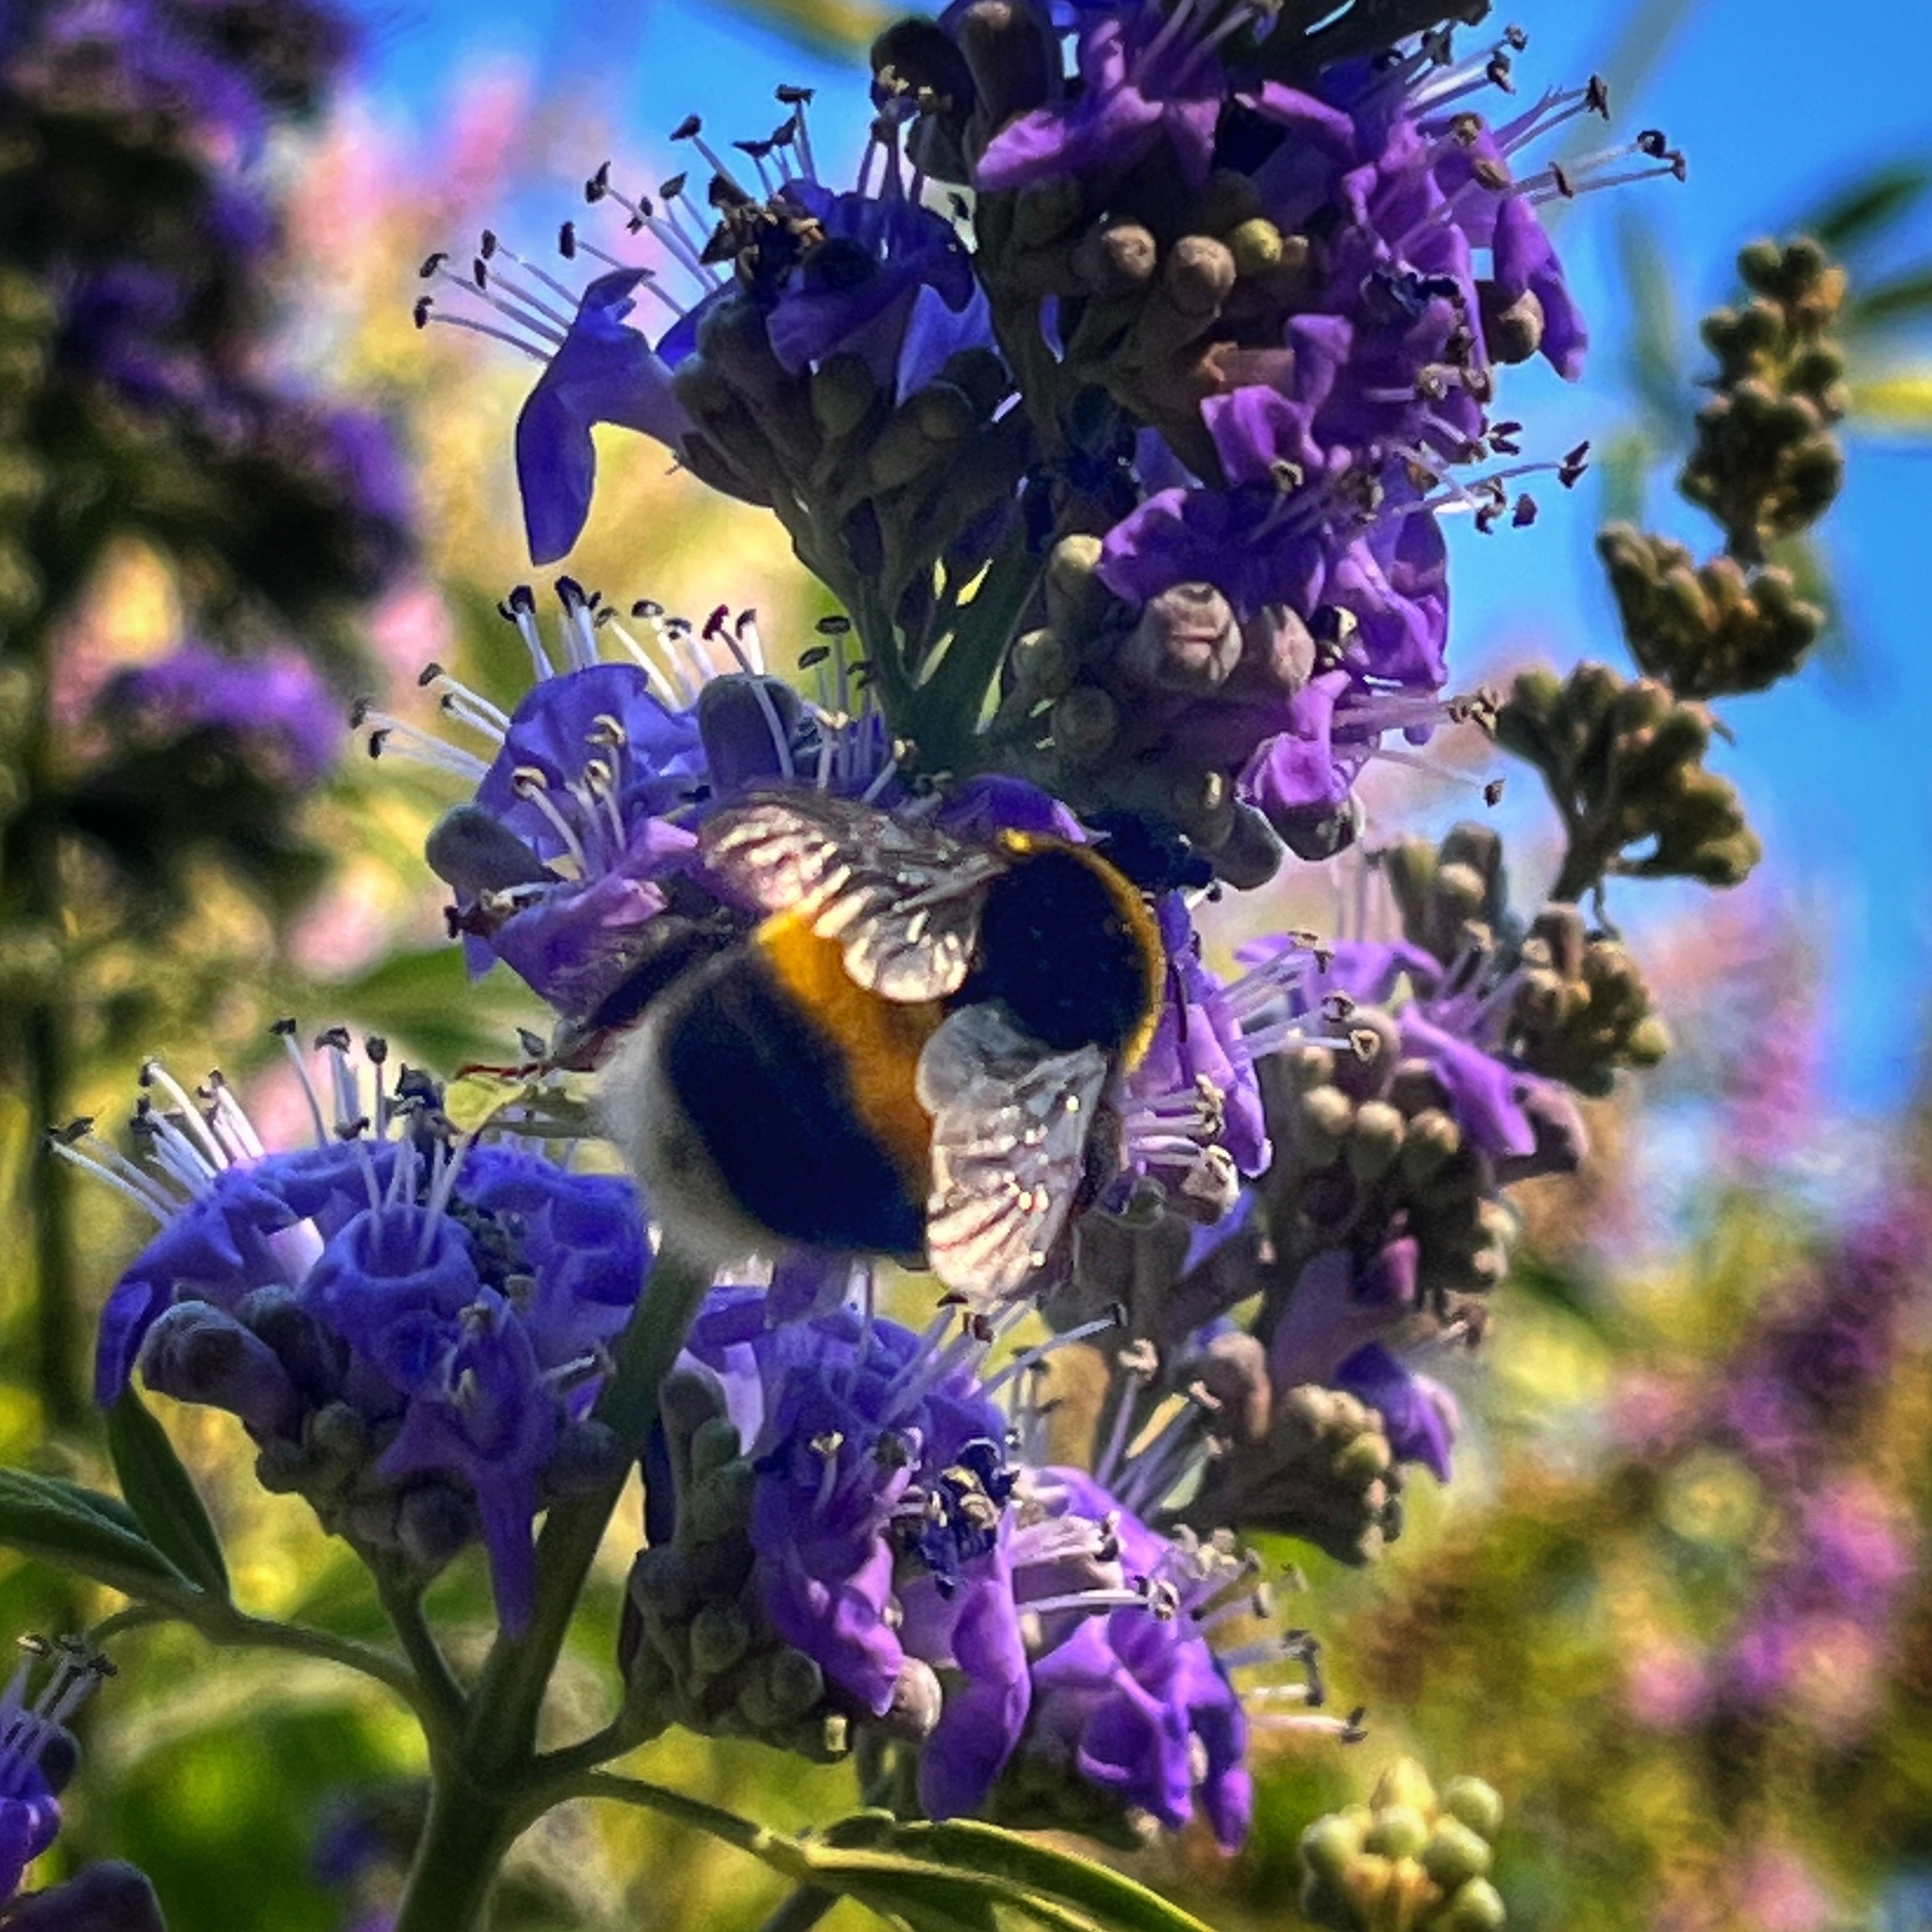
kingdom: Animalia
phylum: Arthropoda
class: Insecta
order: Hymenoptera
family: Apidae
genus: Bombus
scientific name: Bombus terrestris
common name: Buff-tailed bumblebee
